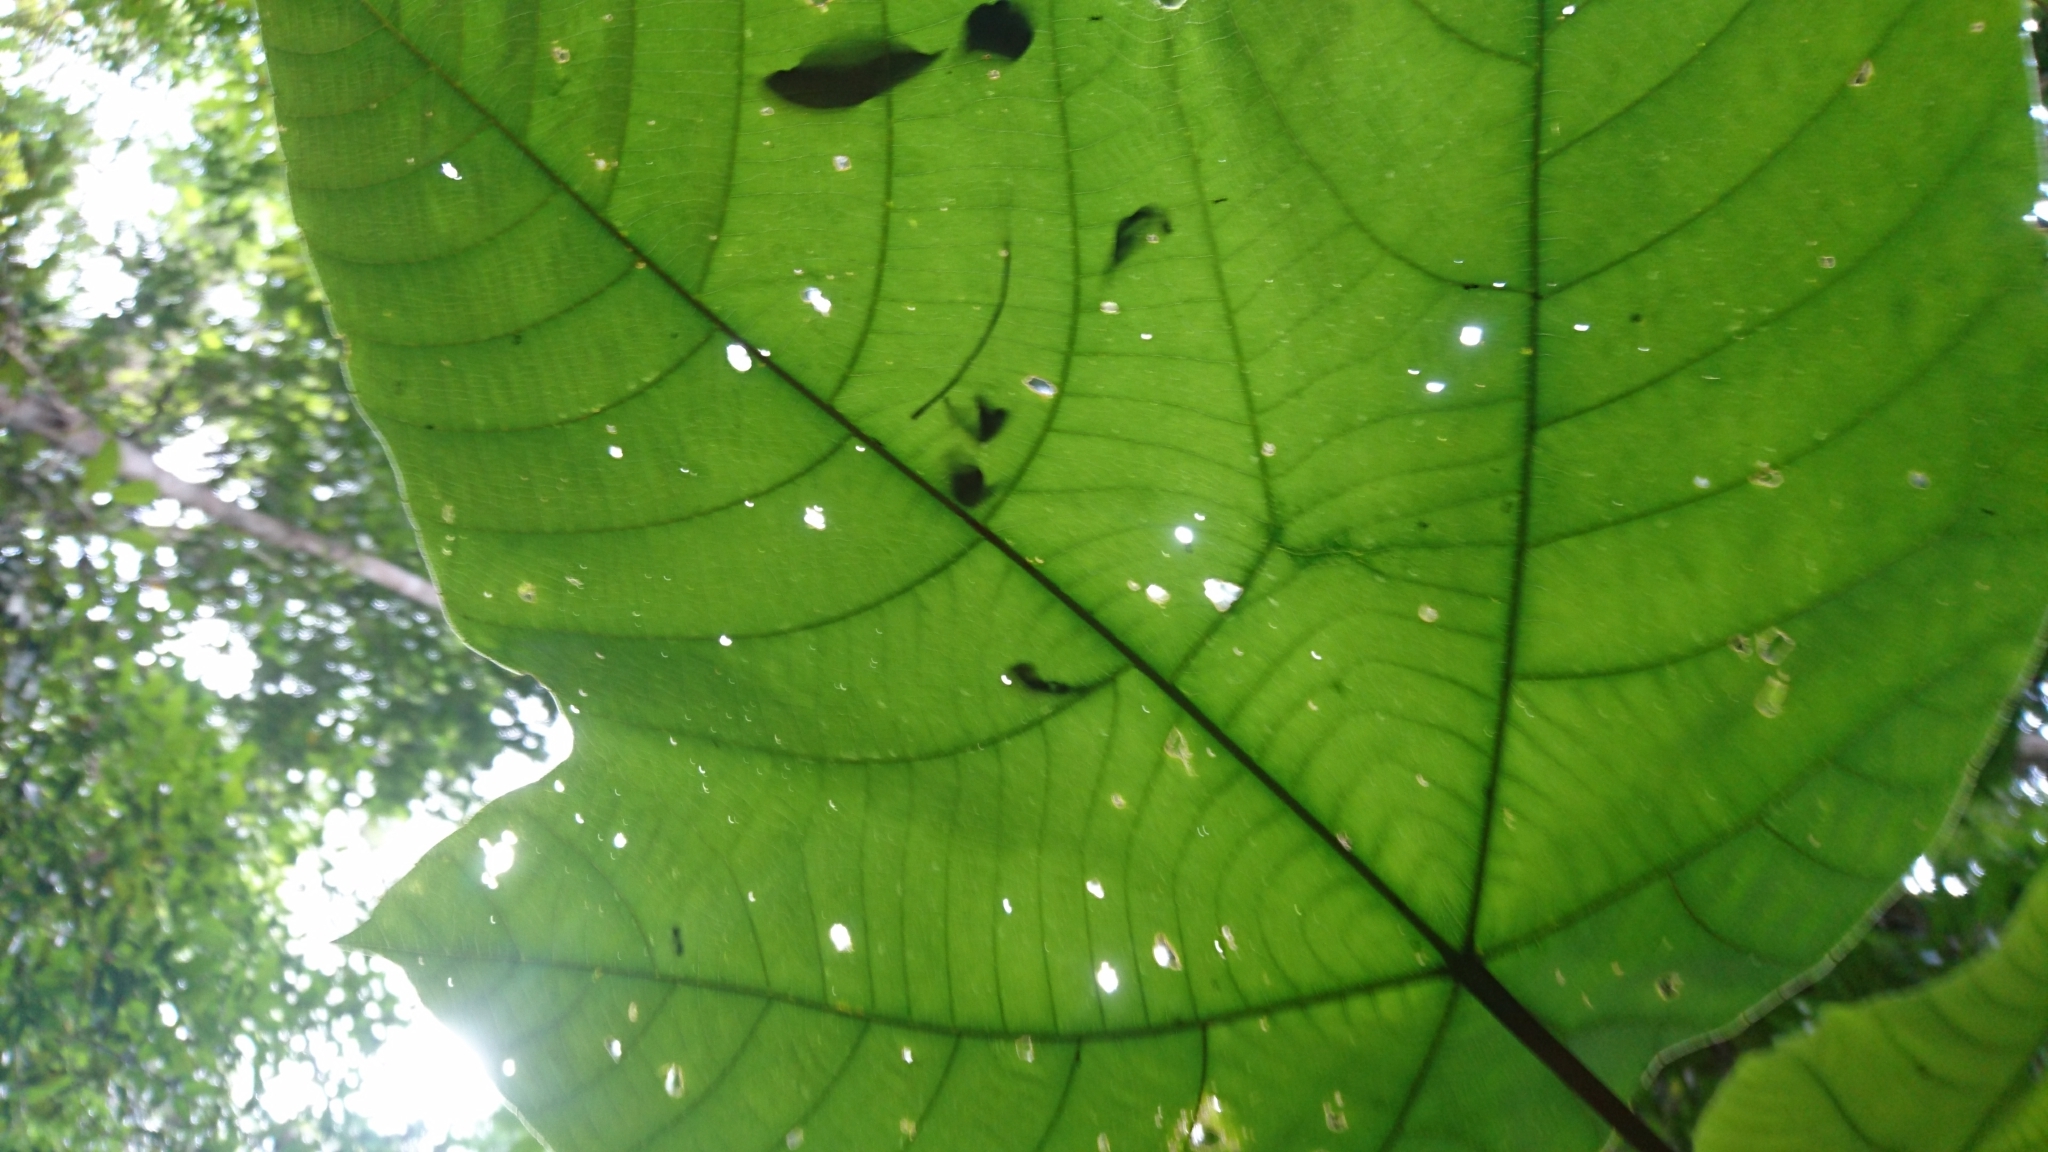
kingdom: Plantae
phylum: Tracheophyta
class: Magnoliopsida
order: Malpighiales
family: Euphorbiaceae
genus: Macaranga
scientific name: Macaranga
